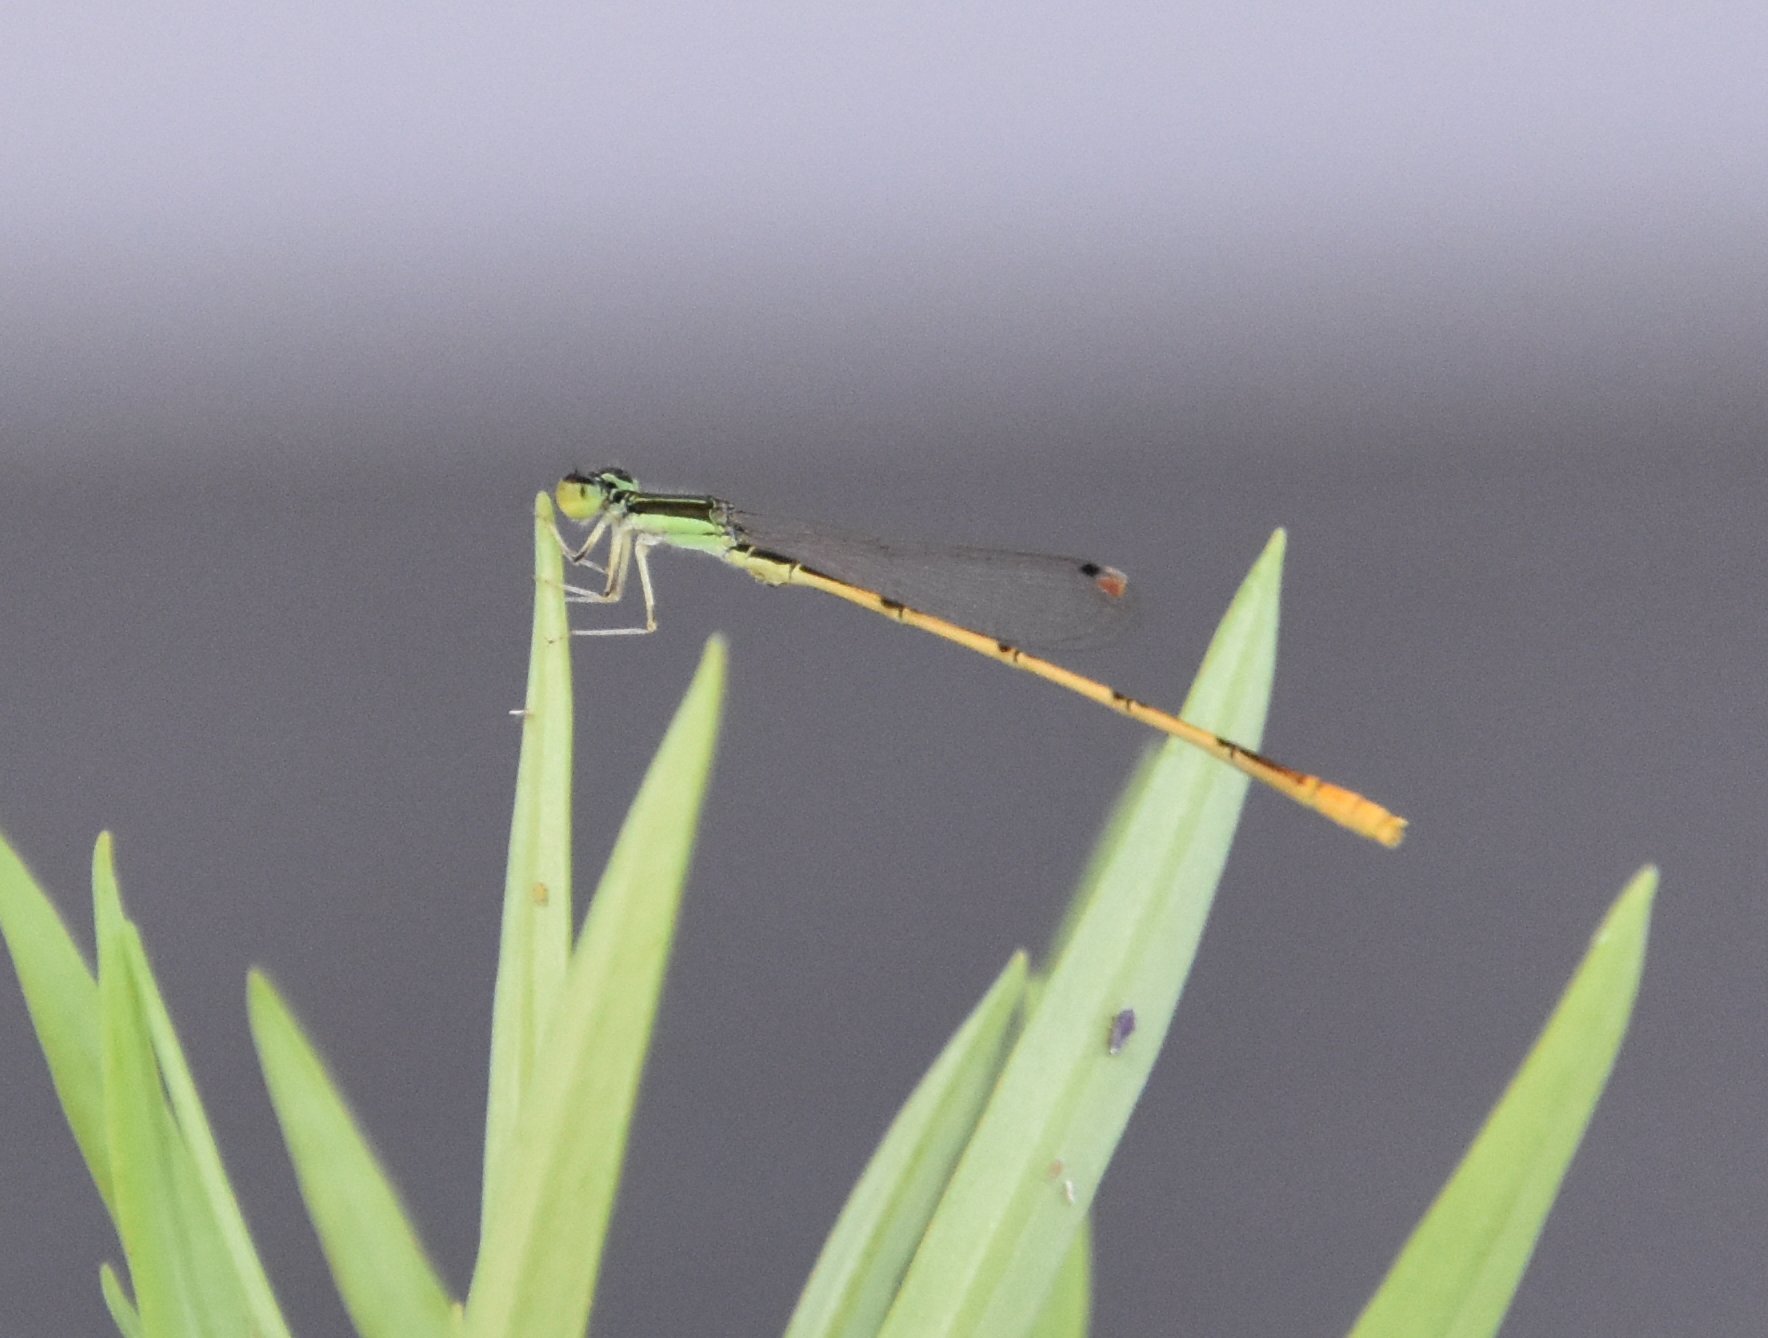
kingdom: Animalia
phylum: Arthropoda
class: Insecta
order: Odonata
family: Coenagrionidae
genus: Ischnura
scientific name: Ischnura hastata
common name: Citrine forktail
